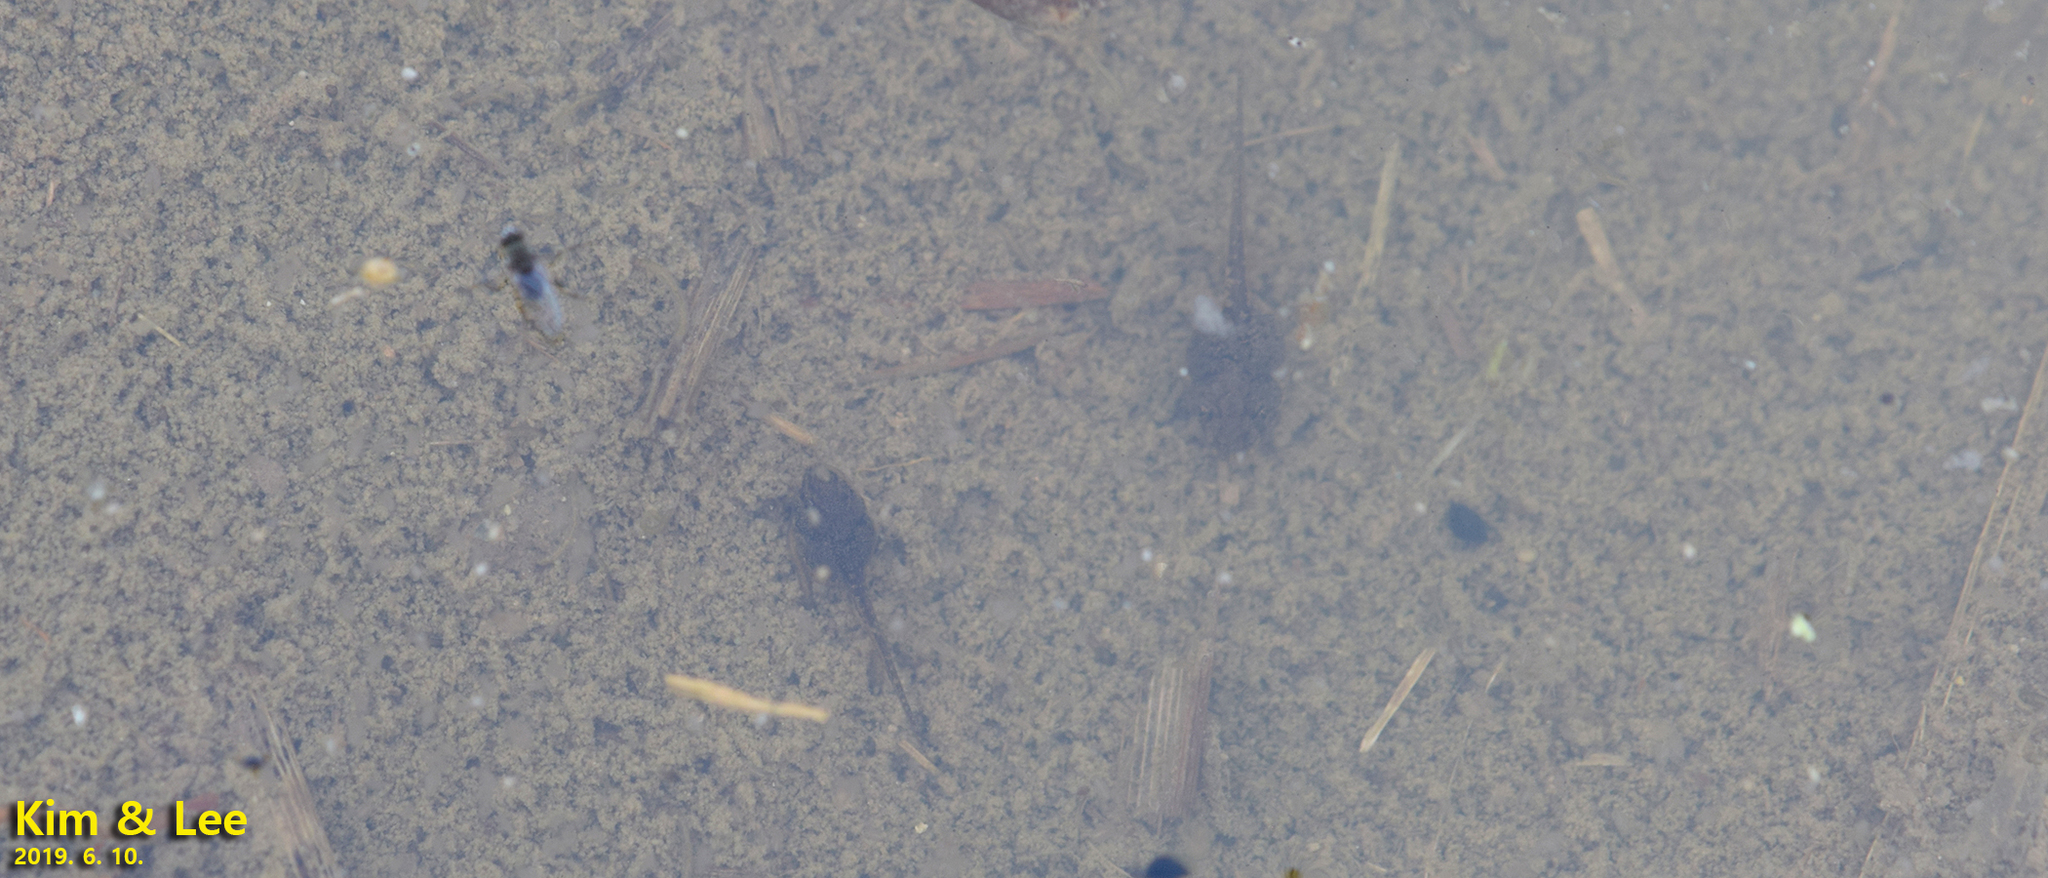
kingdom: Animalia
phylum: Chordata
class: Amphibia
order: Anura
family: Hylidae
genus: Dryophytes
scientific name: Dryophytes japonicus
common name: Japanese treefrog
